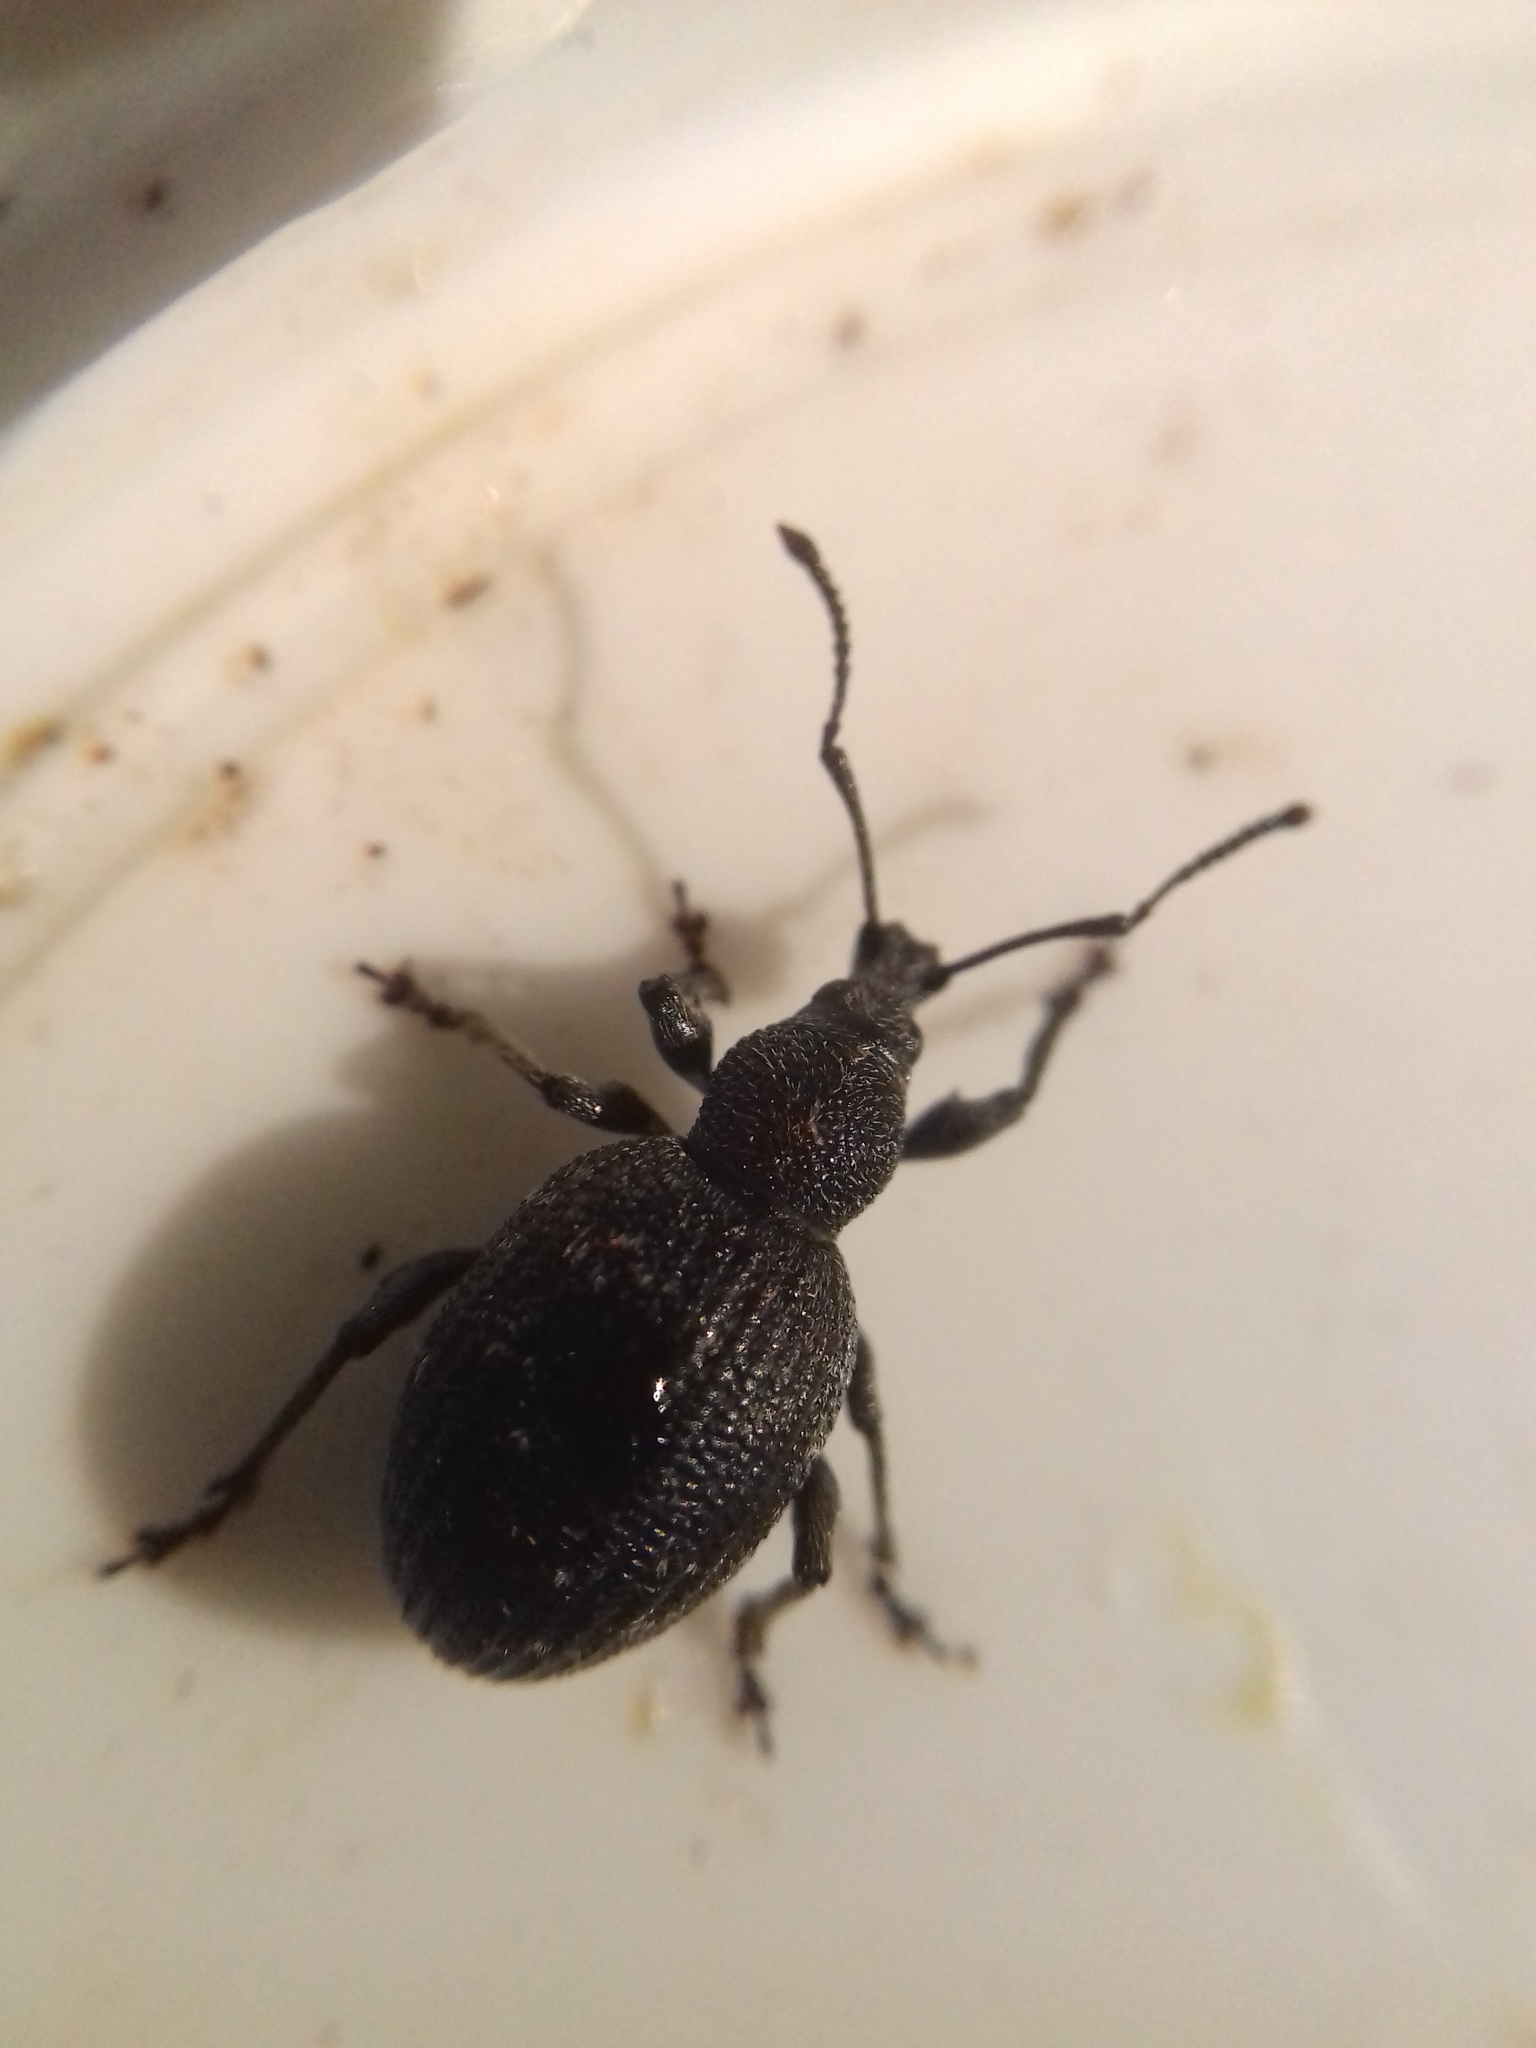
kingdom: Animalia
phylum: Arthropoda
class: Insecta
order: Coleoptera
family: Curculionidae
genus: Otiorhynchus
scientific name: Otiorhynchus tristis
